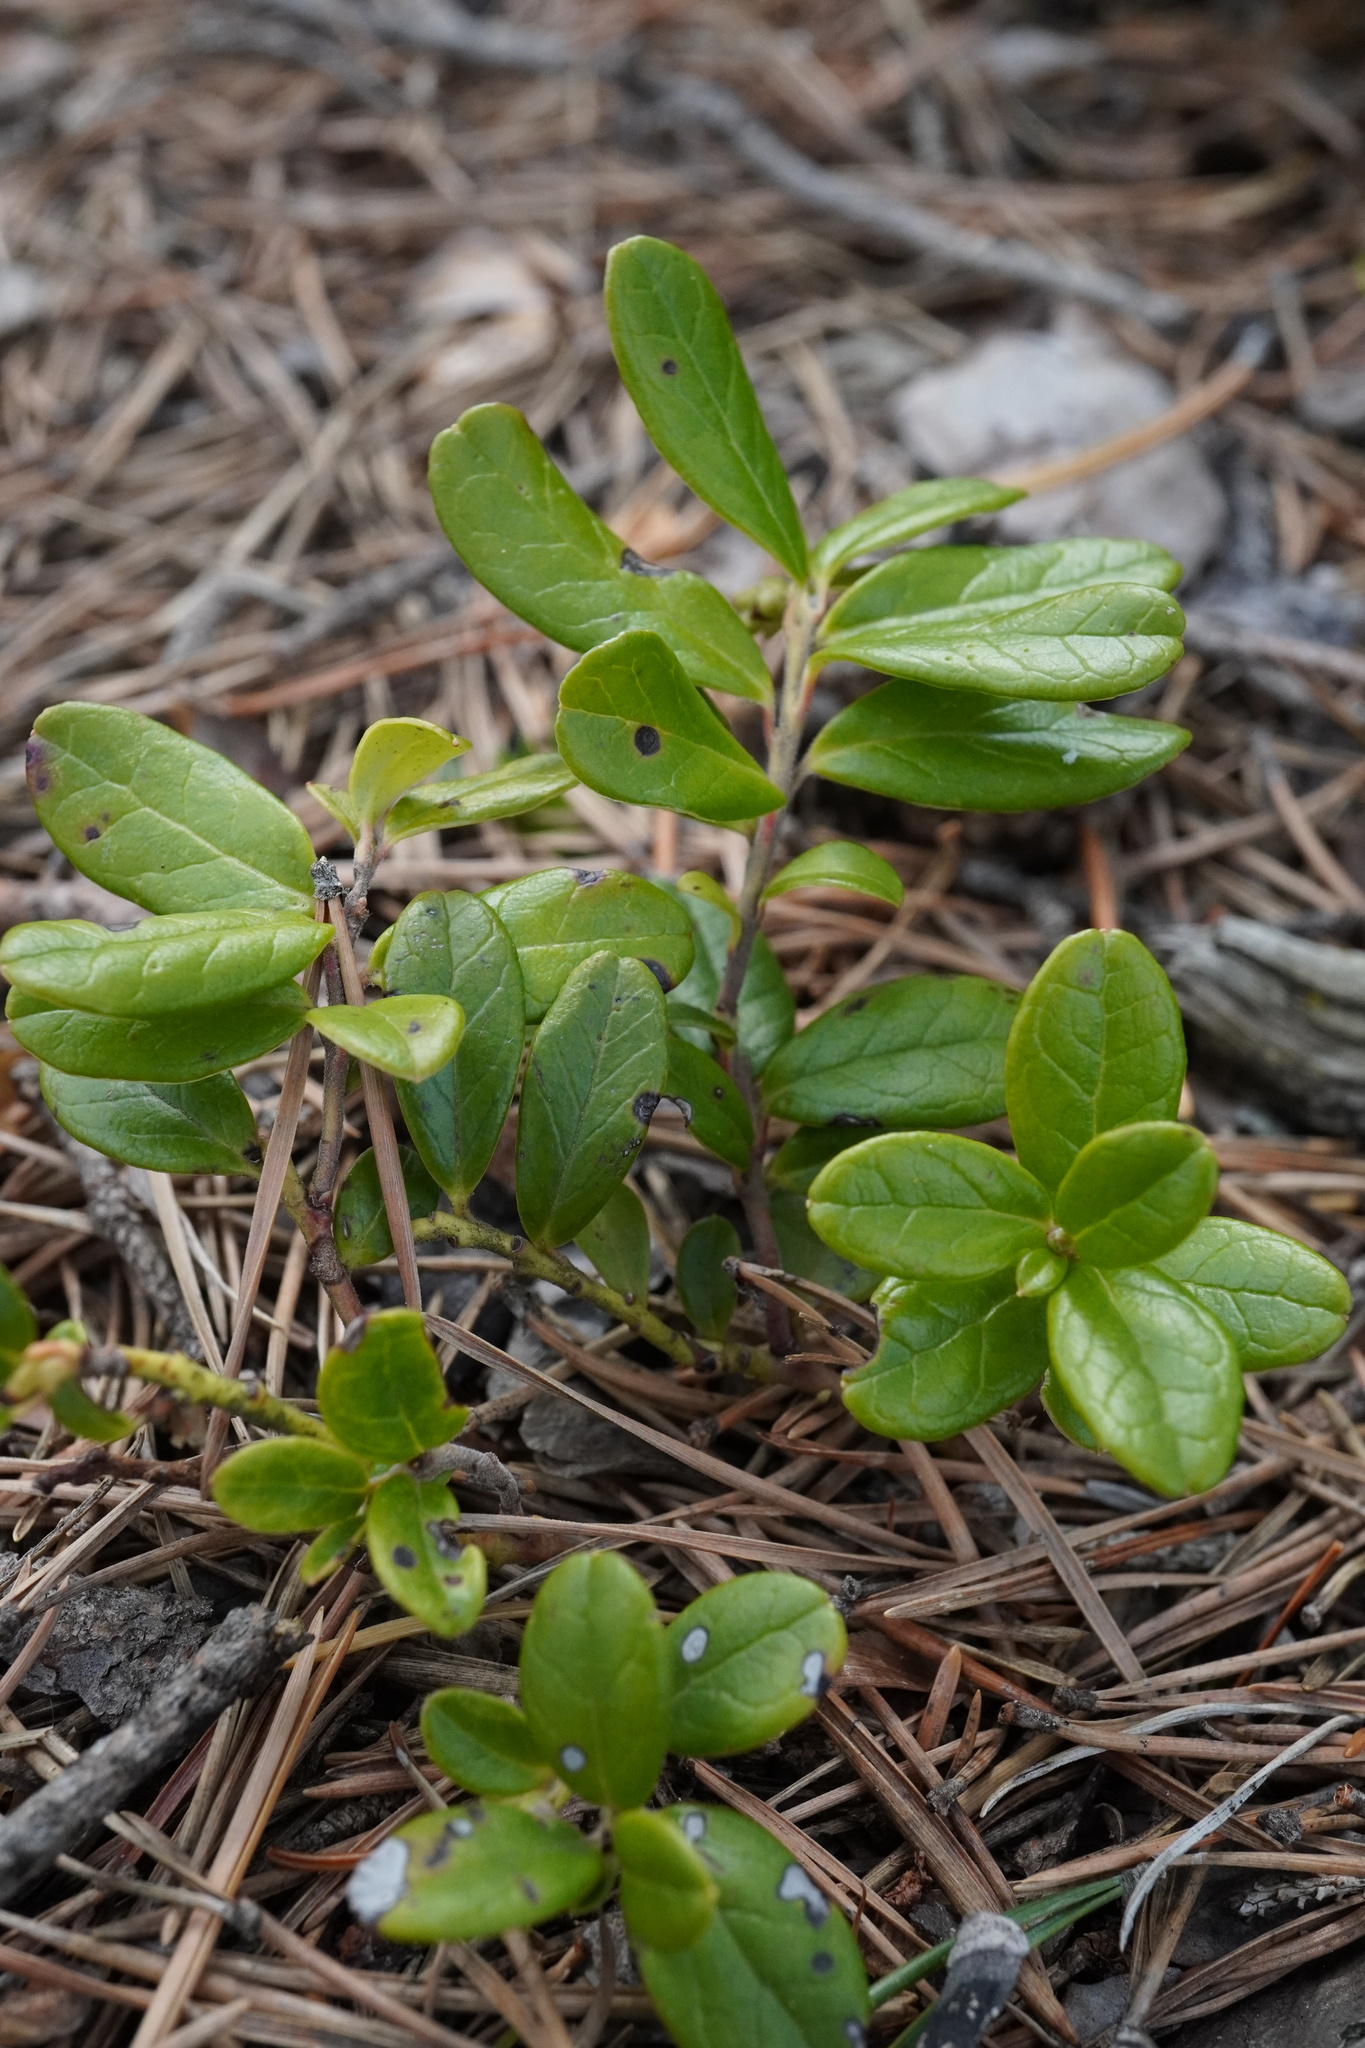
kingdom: Plantae
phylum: Tracheophyta
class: Magnoliopsida
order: Ericales
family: Ericaceae
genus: Vaccinium
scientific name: Vaccinium vitis-idaea
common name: Cowberry
